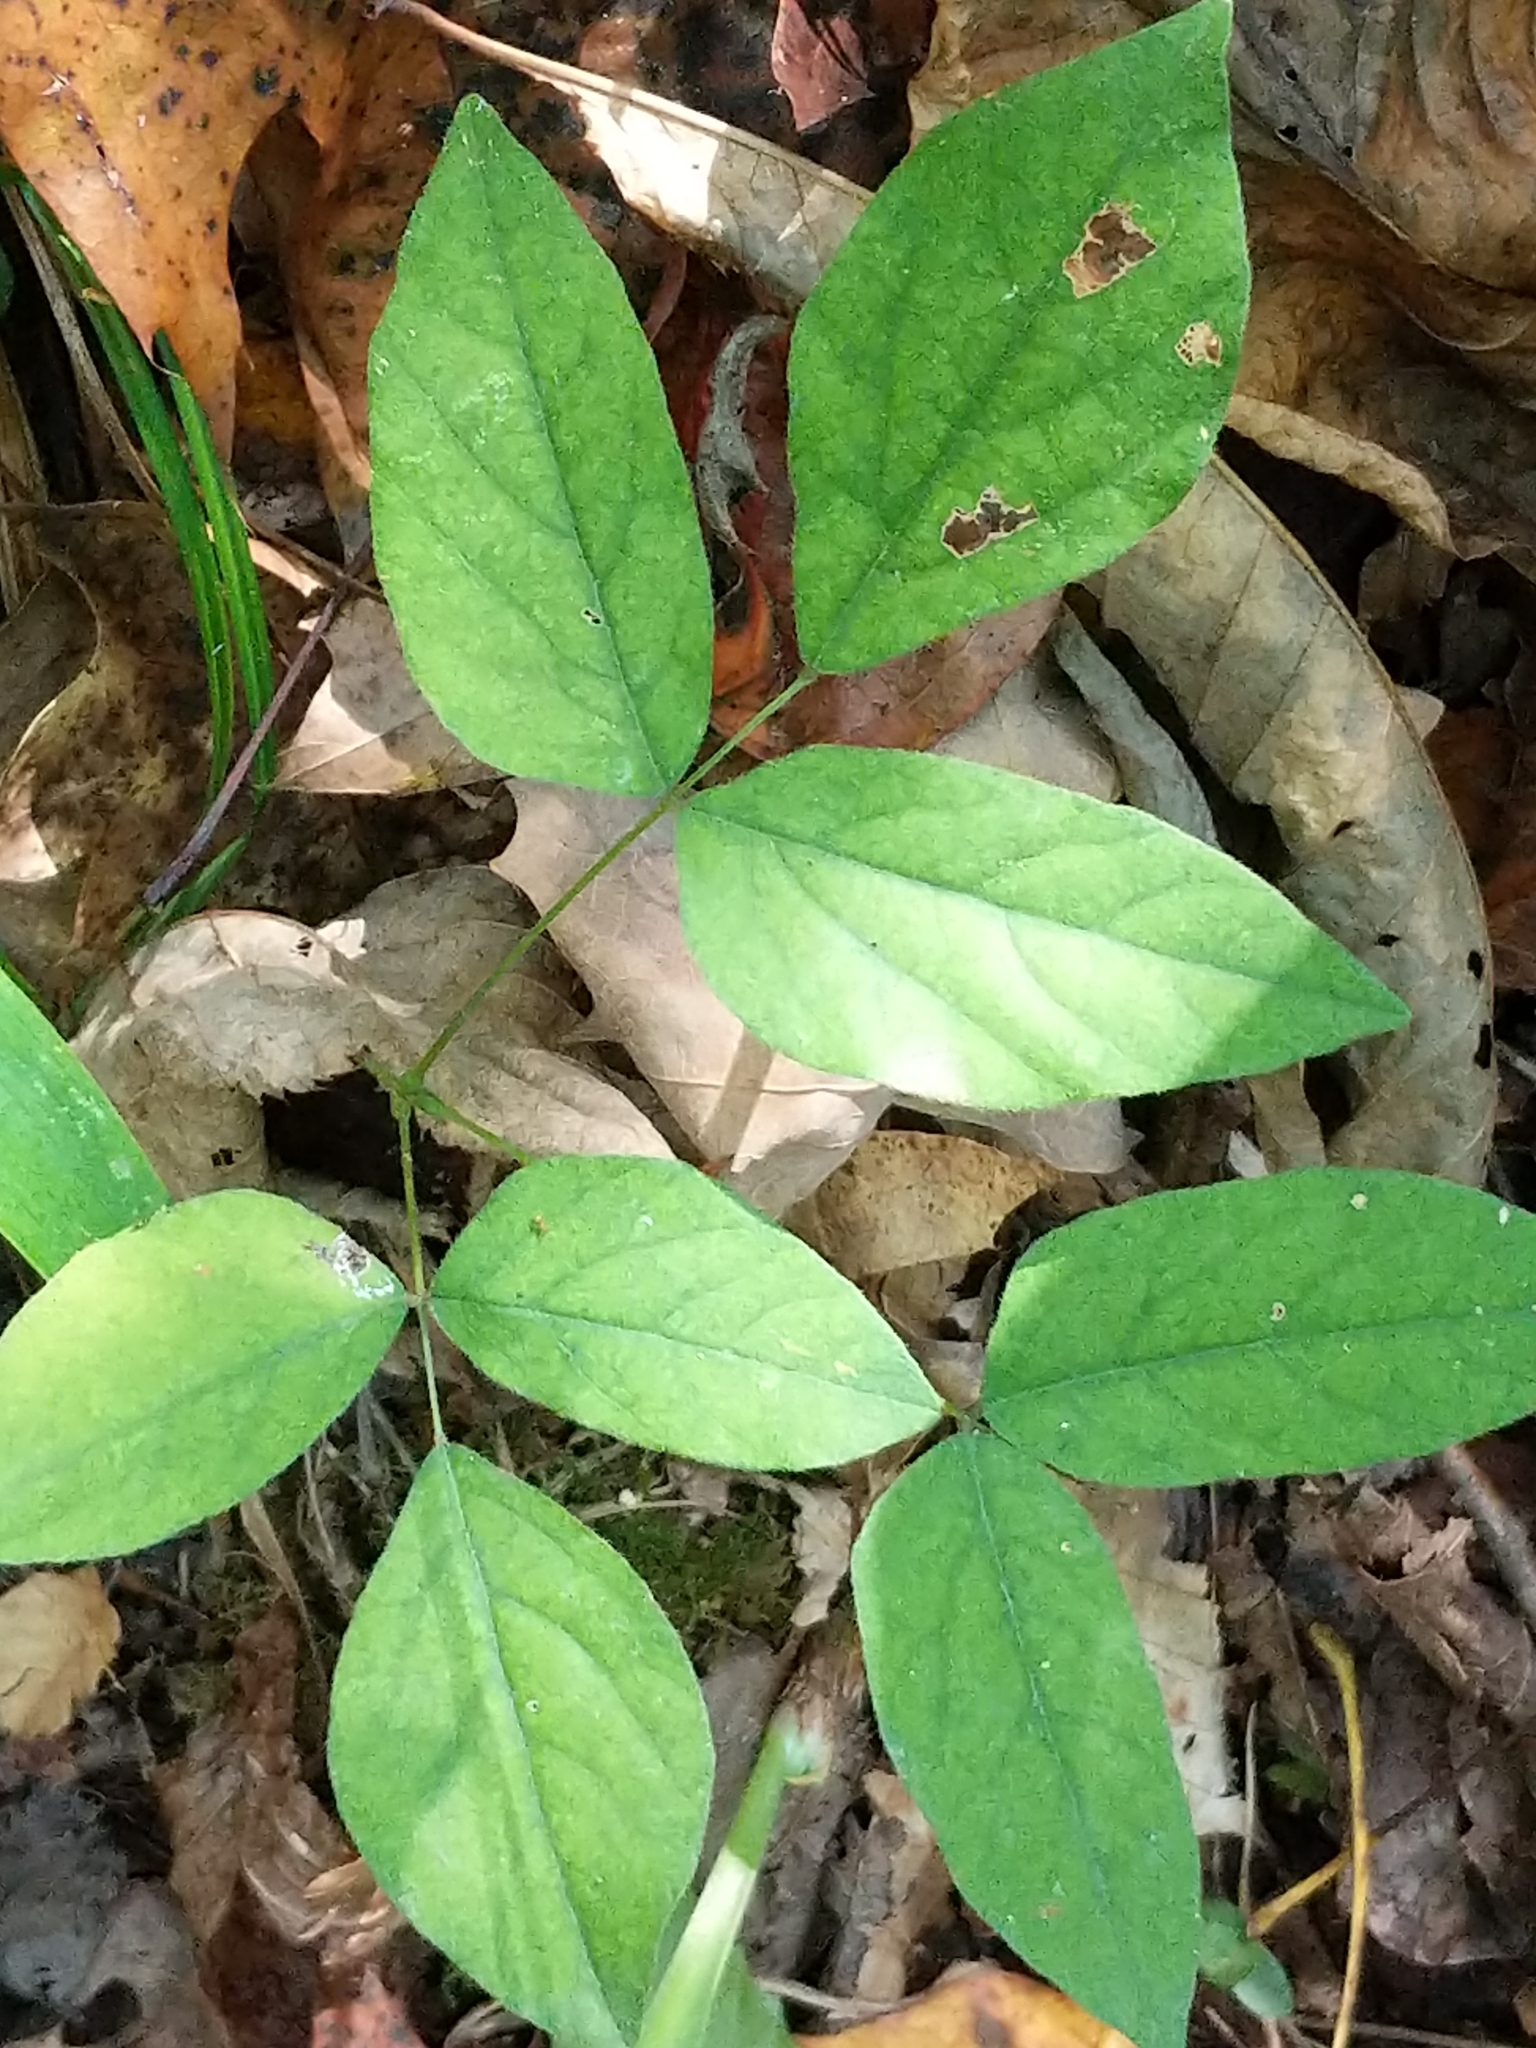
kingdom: Plantae
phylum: Tracheophyta
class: Magnoliopsida
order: Fabales
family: Fabaceae
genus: Hylodesmum
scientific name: Hylodesmum nudiflorum
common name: Bare-stemmed tick-trefoil
